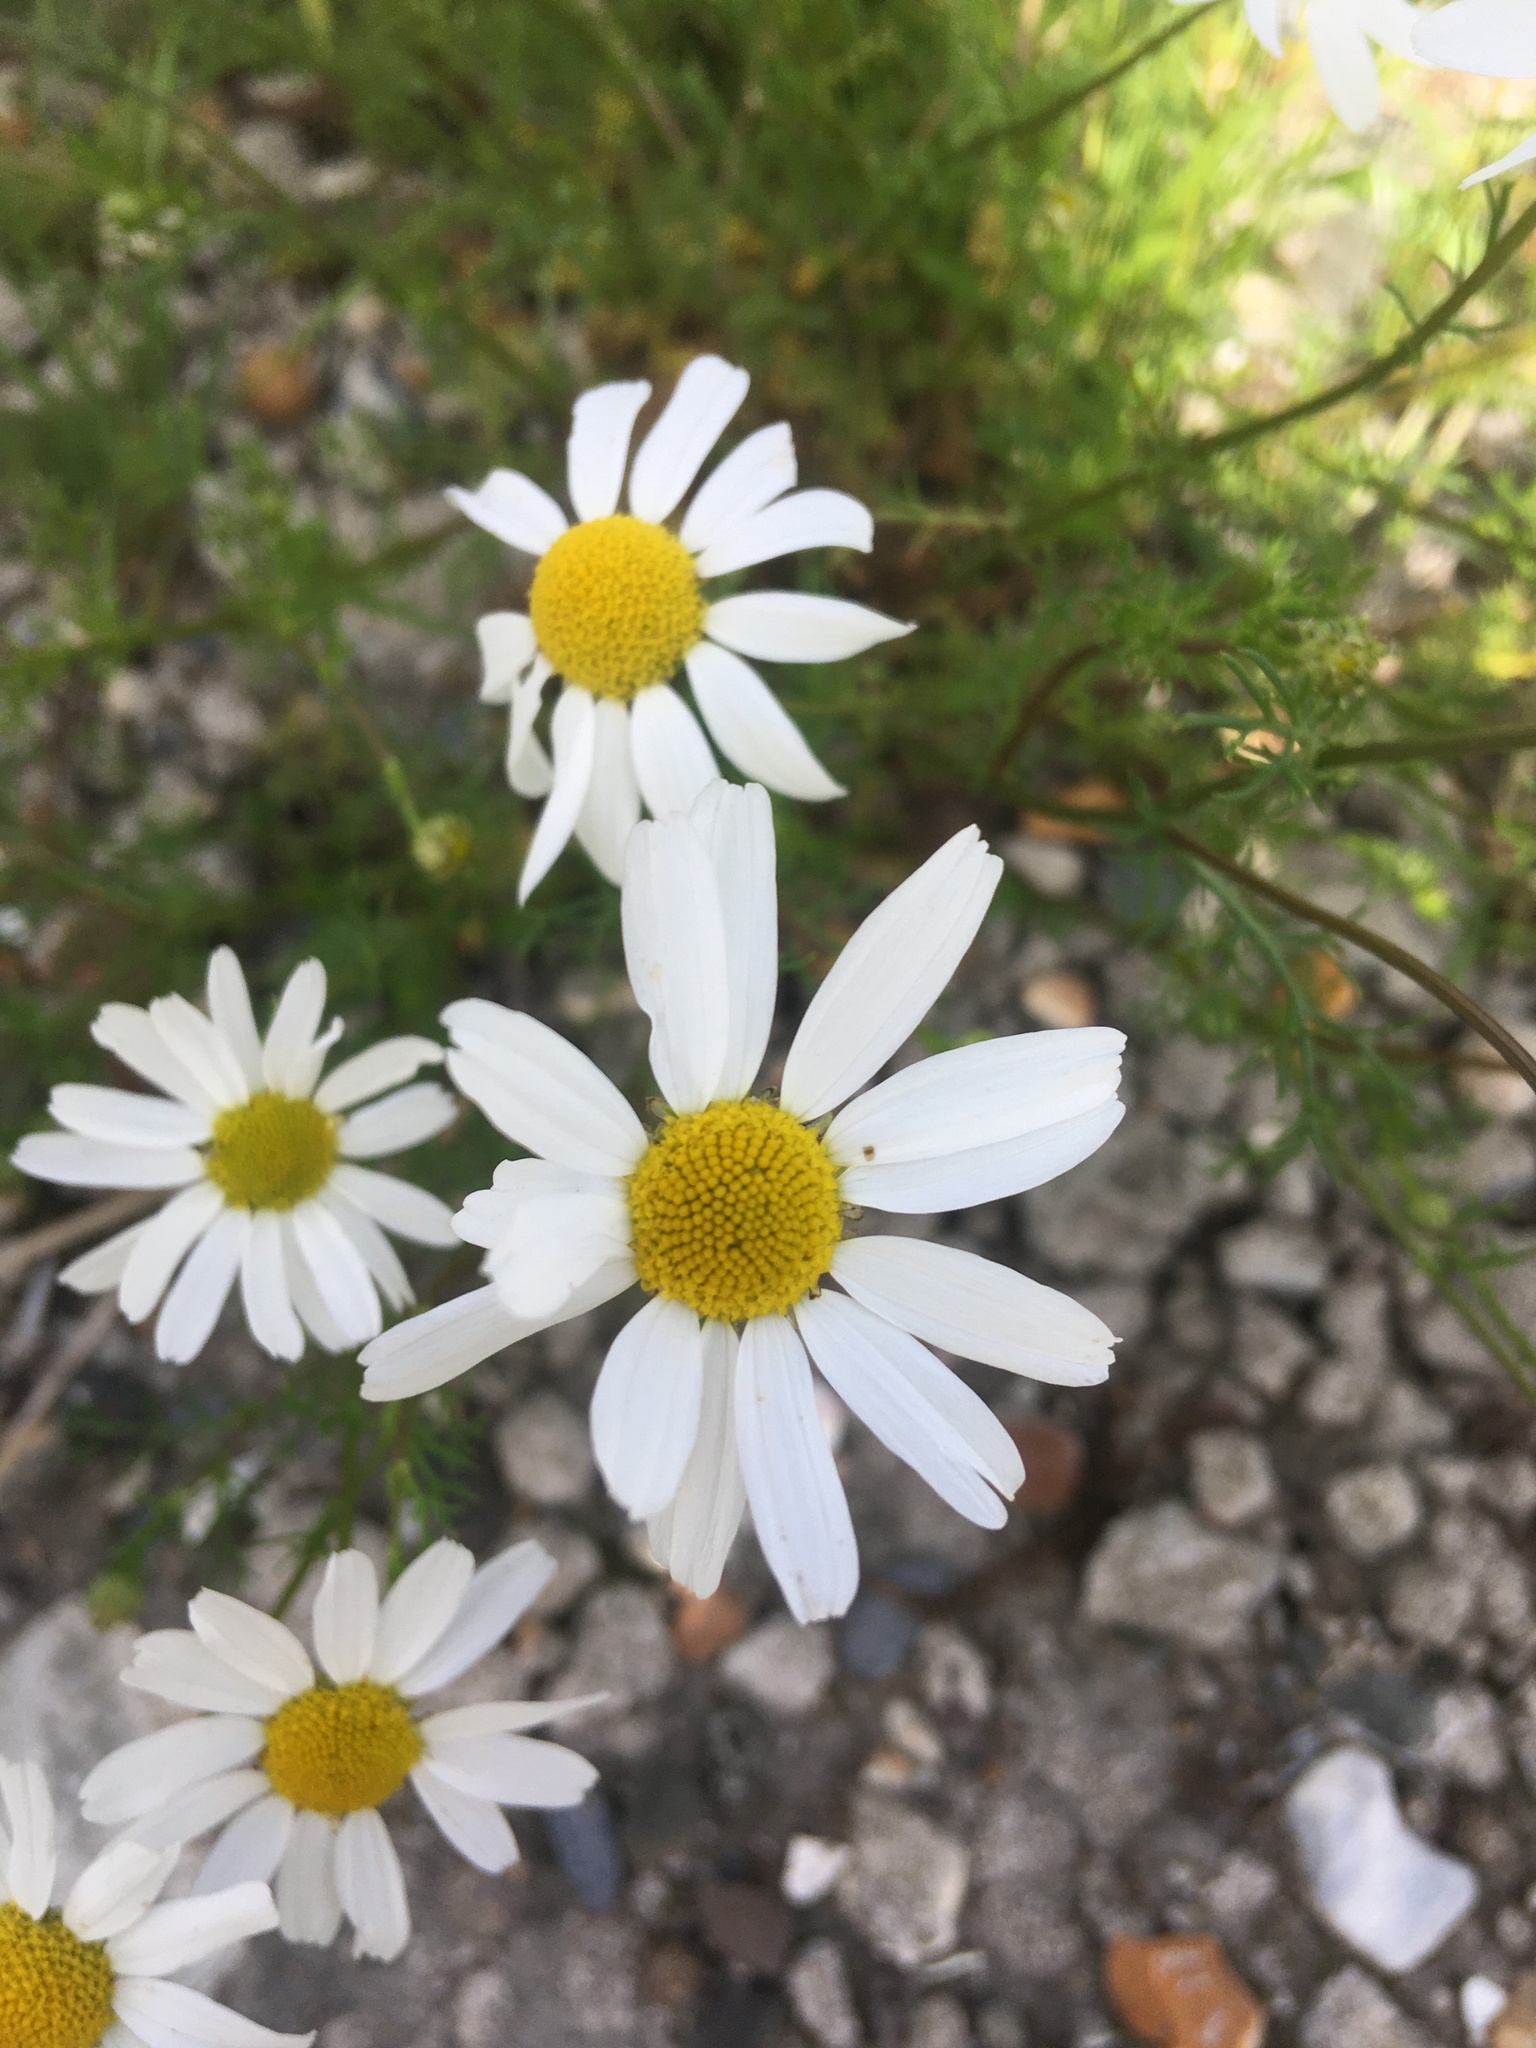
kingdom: Plantae
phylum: Tracheophyta
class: Magnoliopsida
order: Asterales
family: Asteraceae
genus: Tripleurospermum
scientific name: Tripleurospermum inodorum
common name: Scentless mayweed
